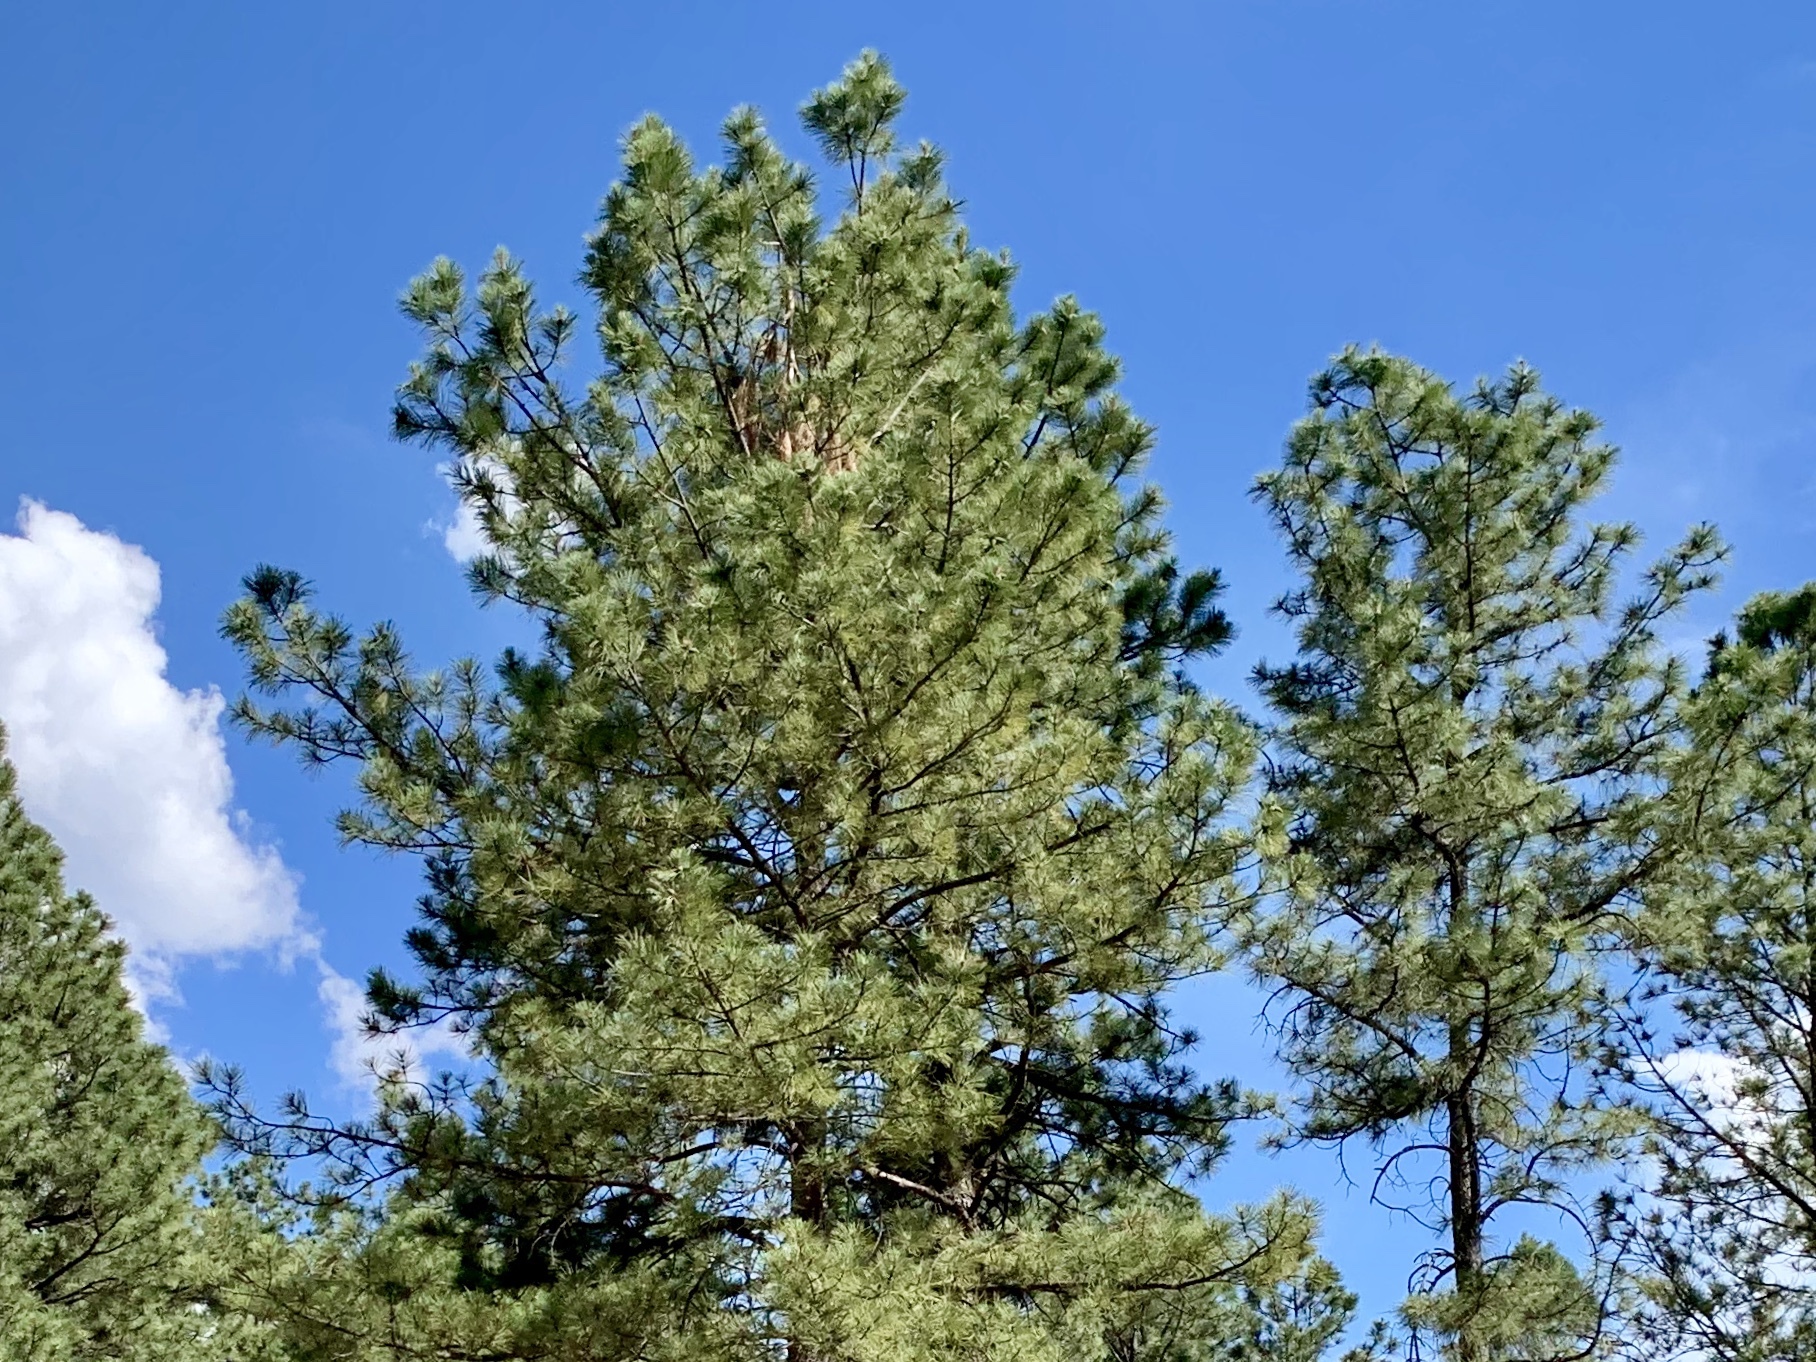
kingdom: Plantae
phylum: Tracheophyta
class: Pinopsida
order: Pinales
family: Pinaceae
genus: Pinus
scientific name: Pinus ponderosa
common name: Western yellow-pine
